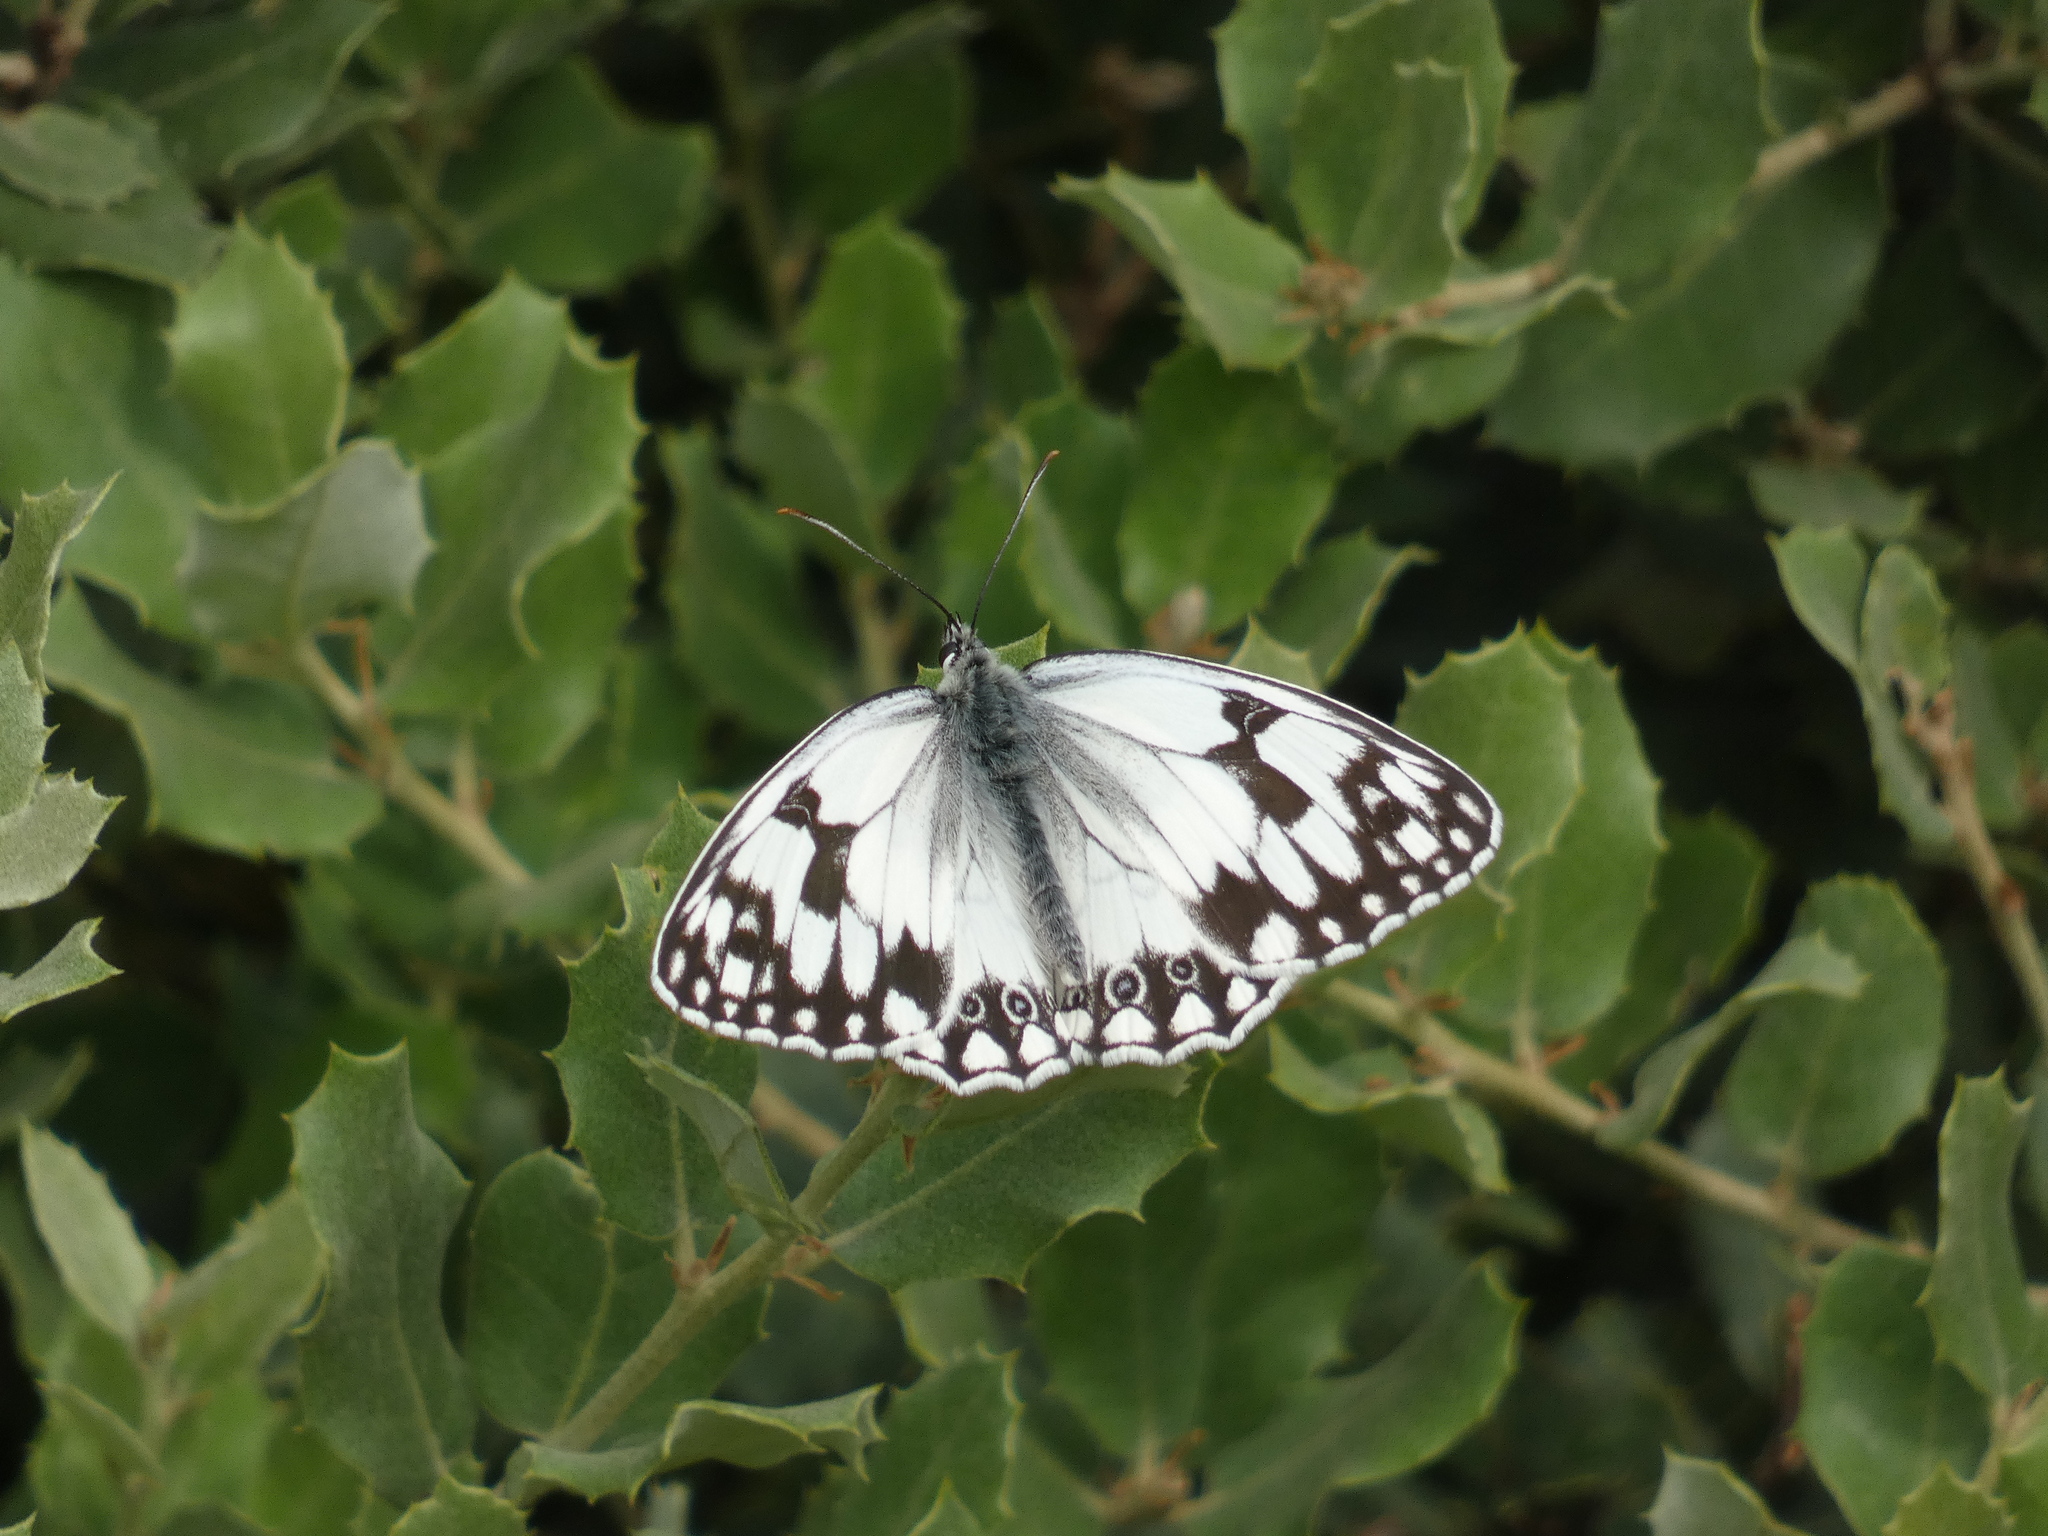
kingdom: Animalia
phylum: Arthropoda
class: Insecta
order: Lepidoptera
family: Nymphalidae
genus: Melanargia
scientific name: Melanargia lachesis
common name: Iberian marbled white
